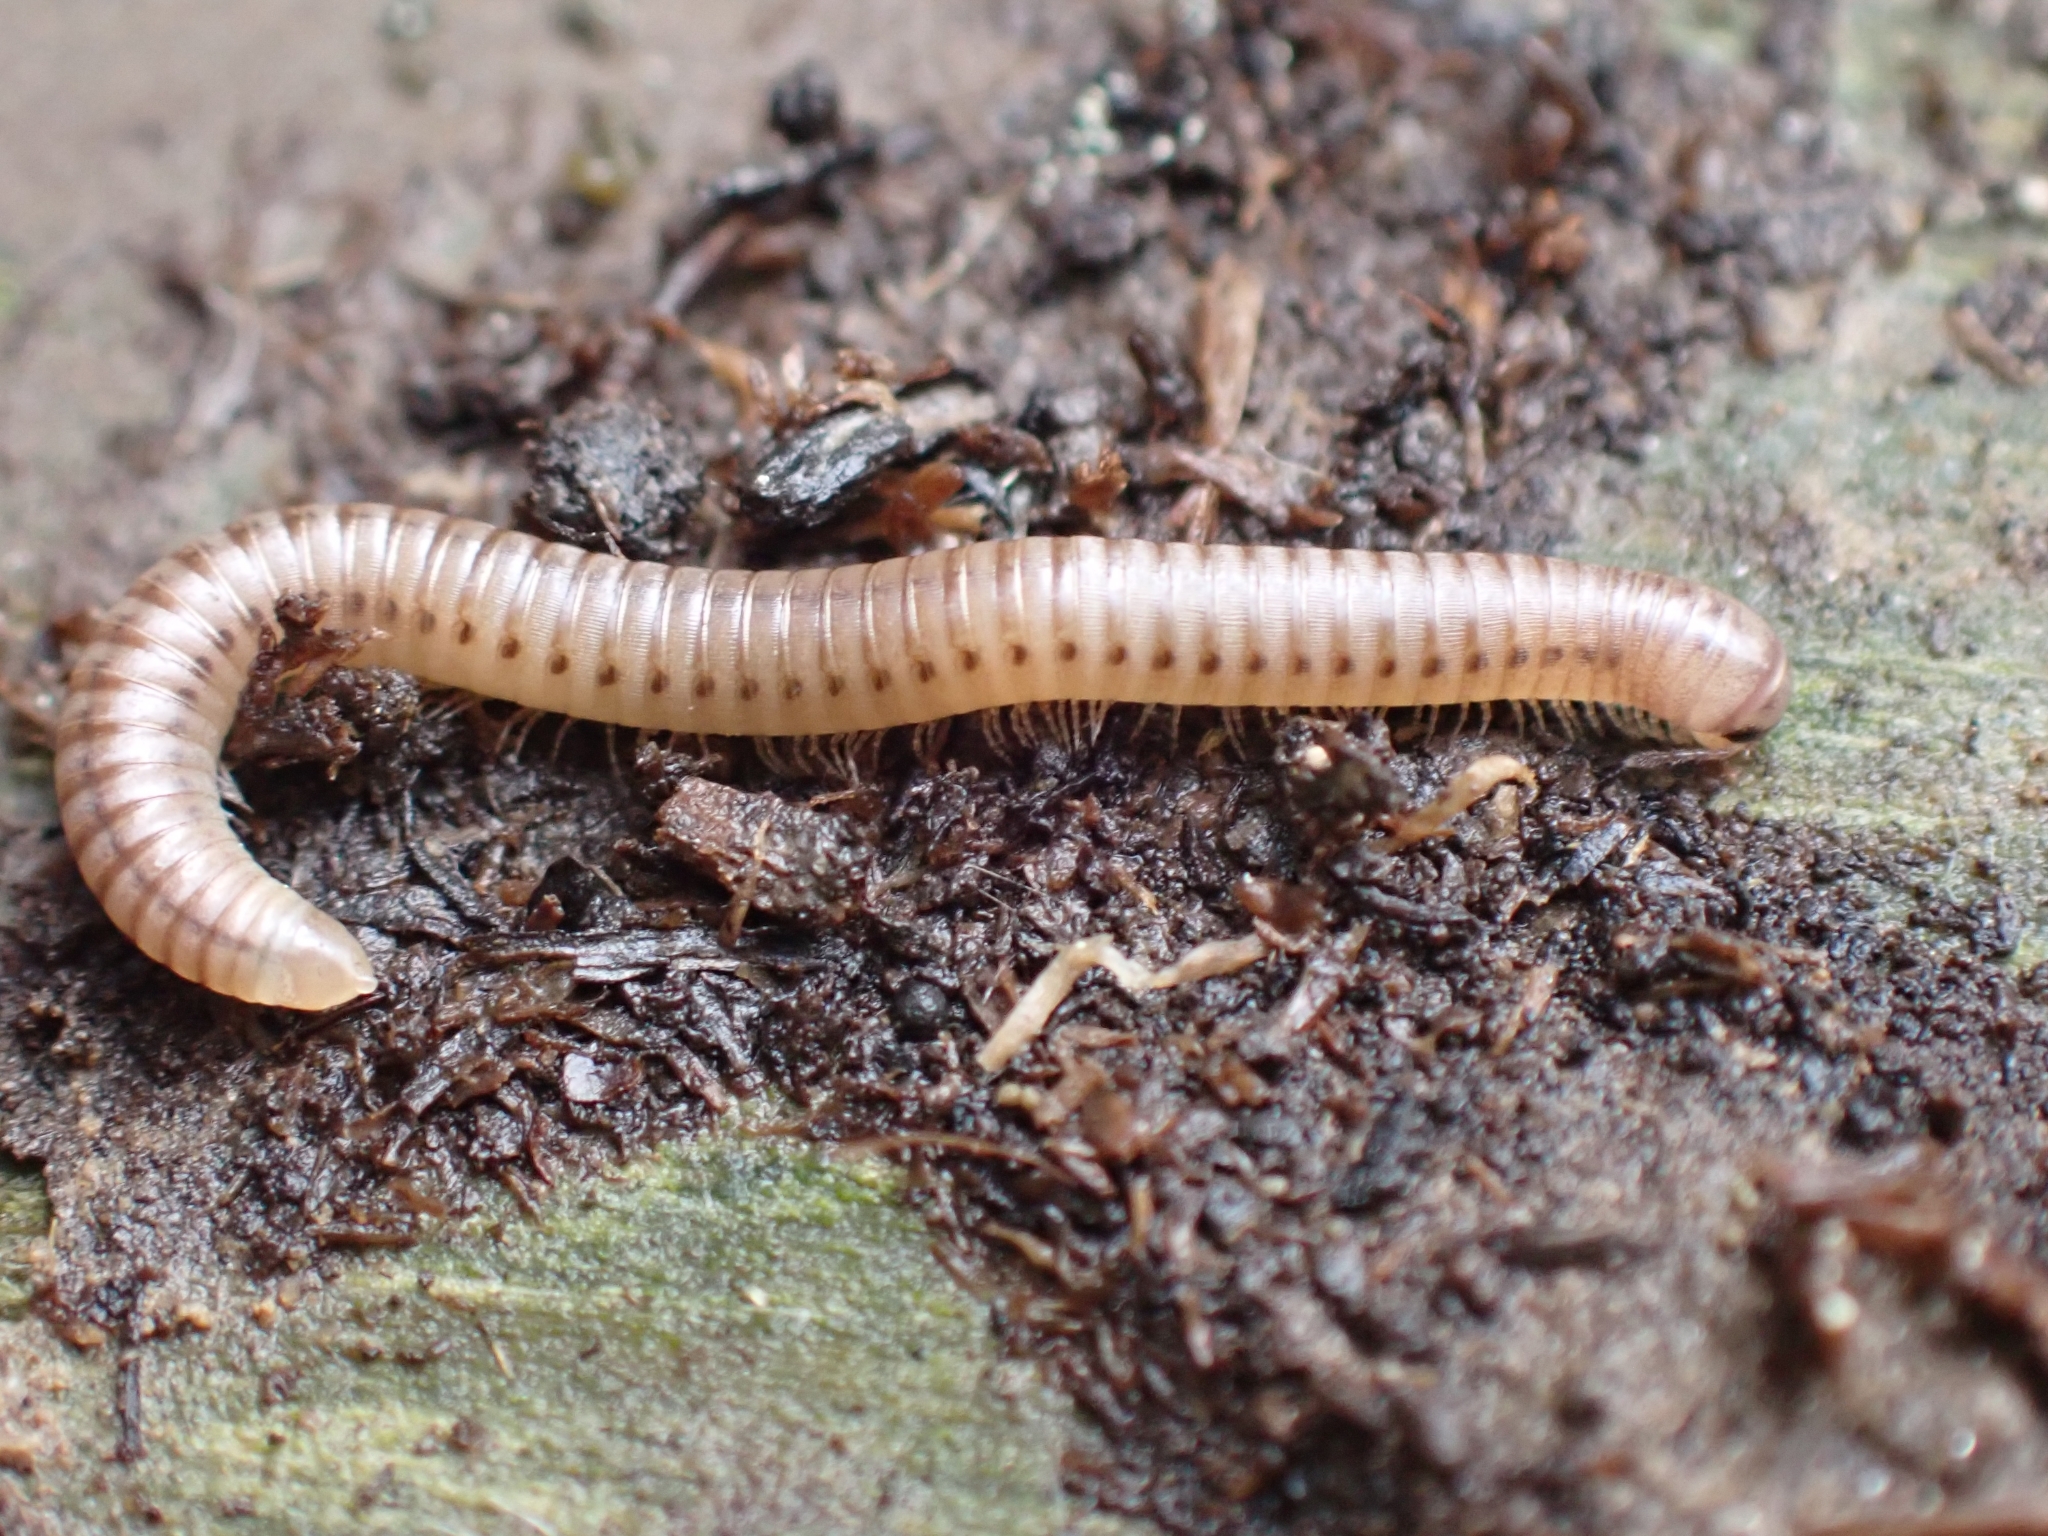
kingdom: Animalia
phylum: Arthropoda
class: Diplopoda
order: Julida
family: Julidae
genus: Cylindroiulus
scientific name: Cylindroiulus punctatus
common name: Blunt-tailed millipede
